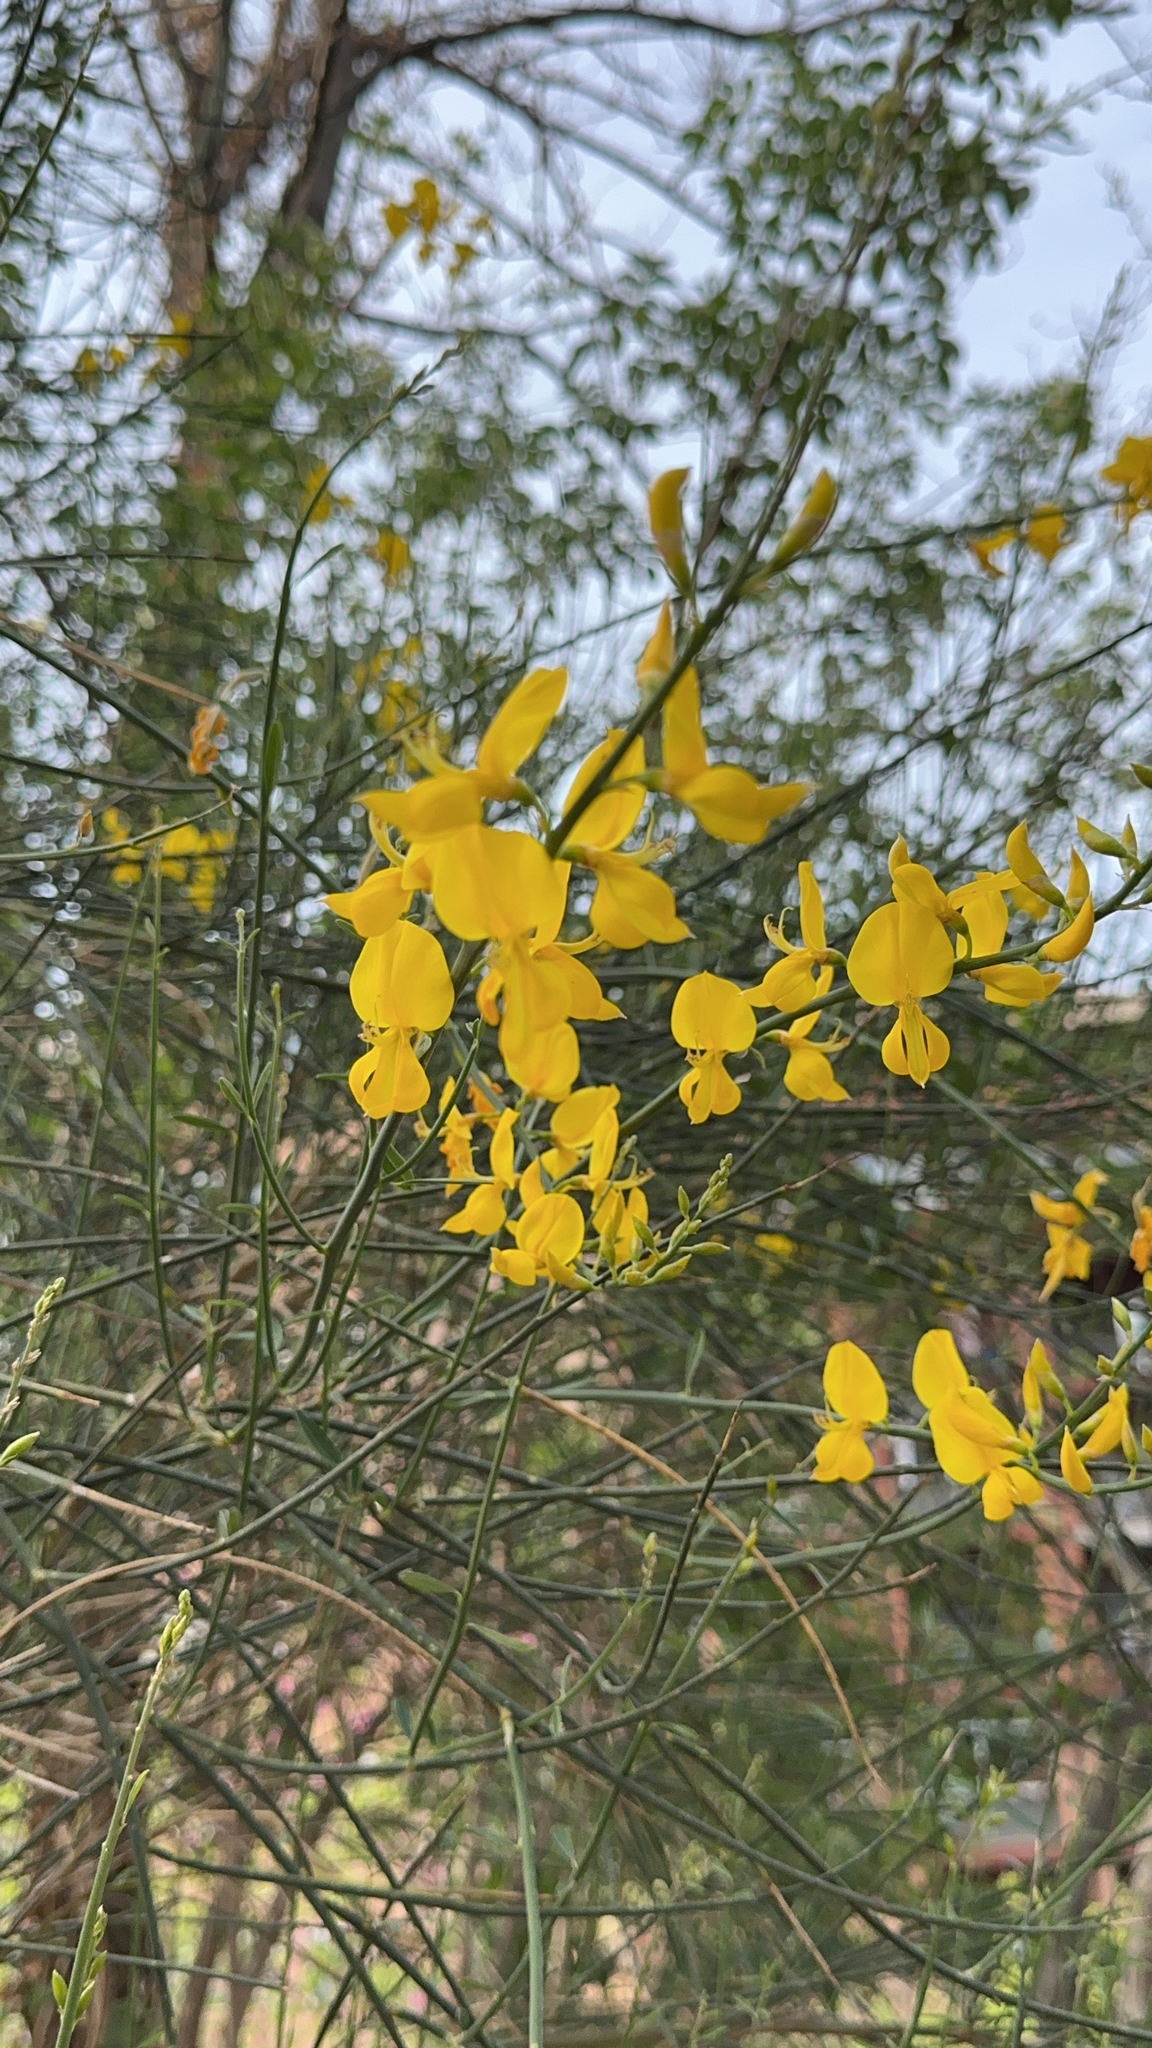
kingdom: Plantae
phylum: Tracheophyta
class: Magnoliopsida
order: Fabales
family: Fabaceae
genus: Spartium
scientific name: Spartium junceum
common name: Spanish broom
